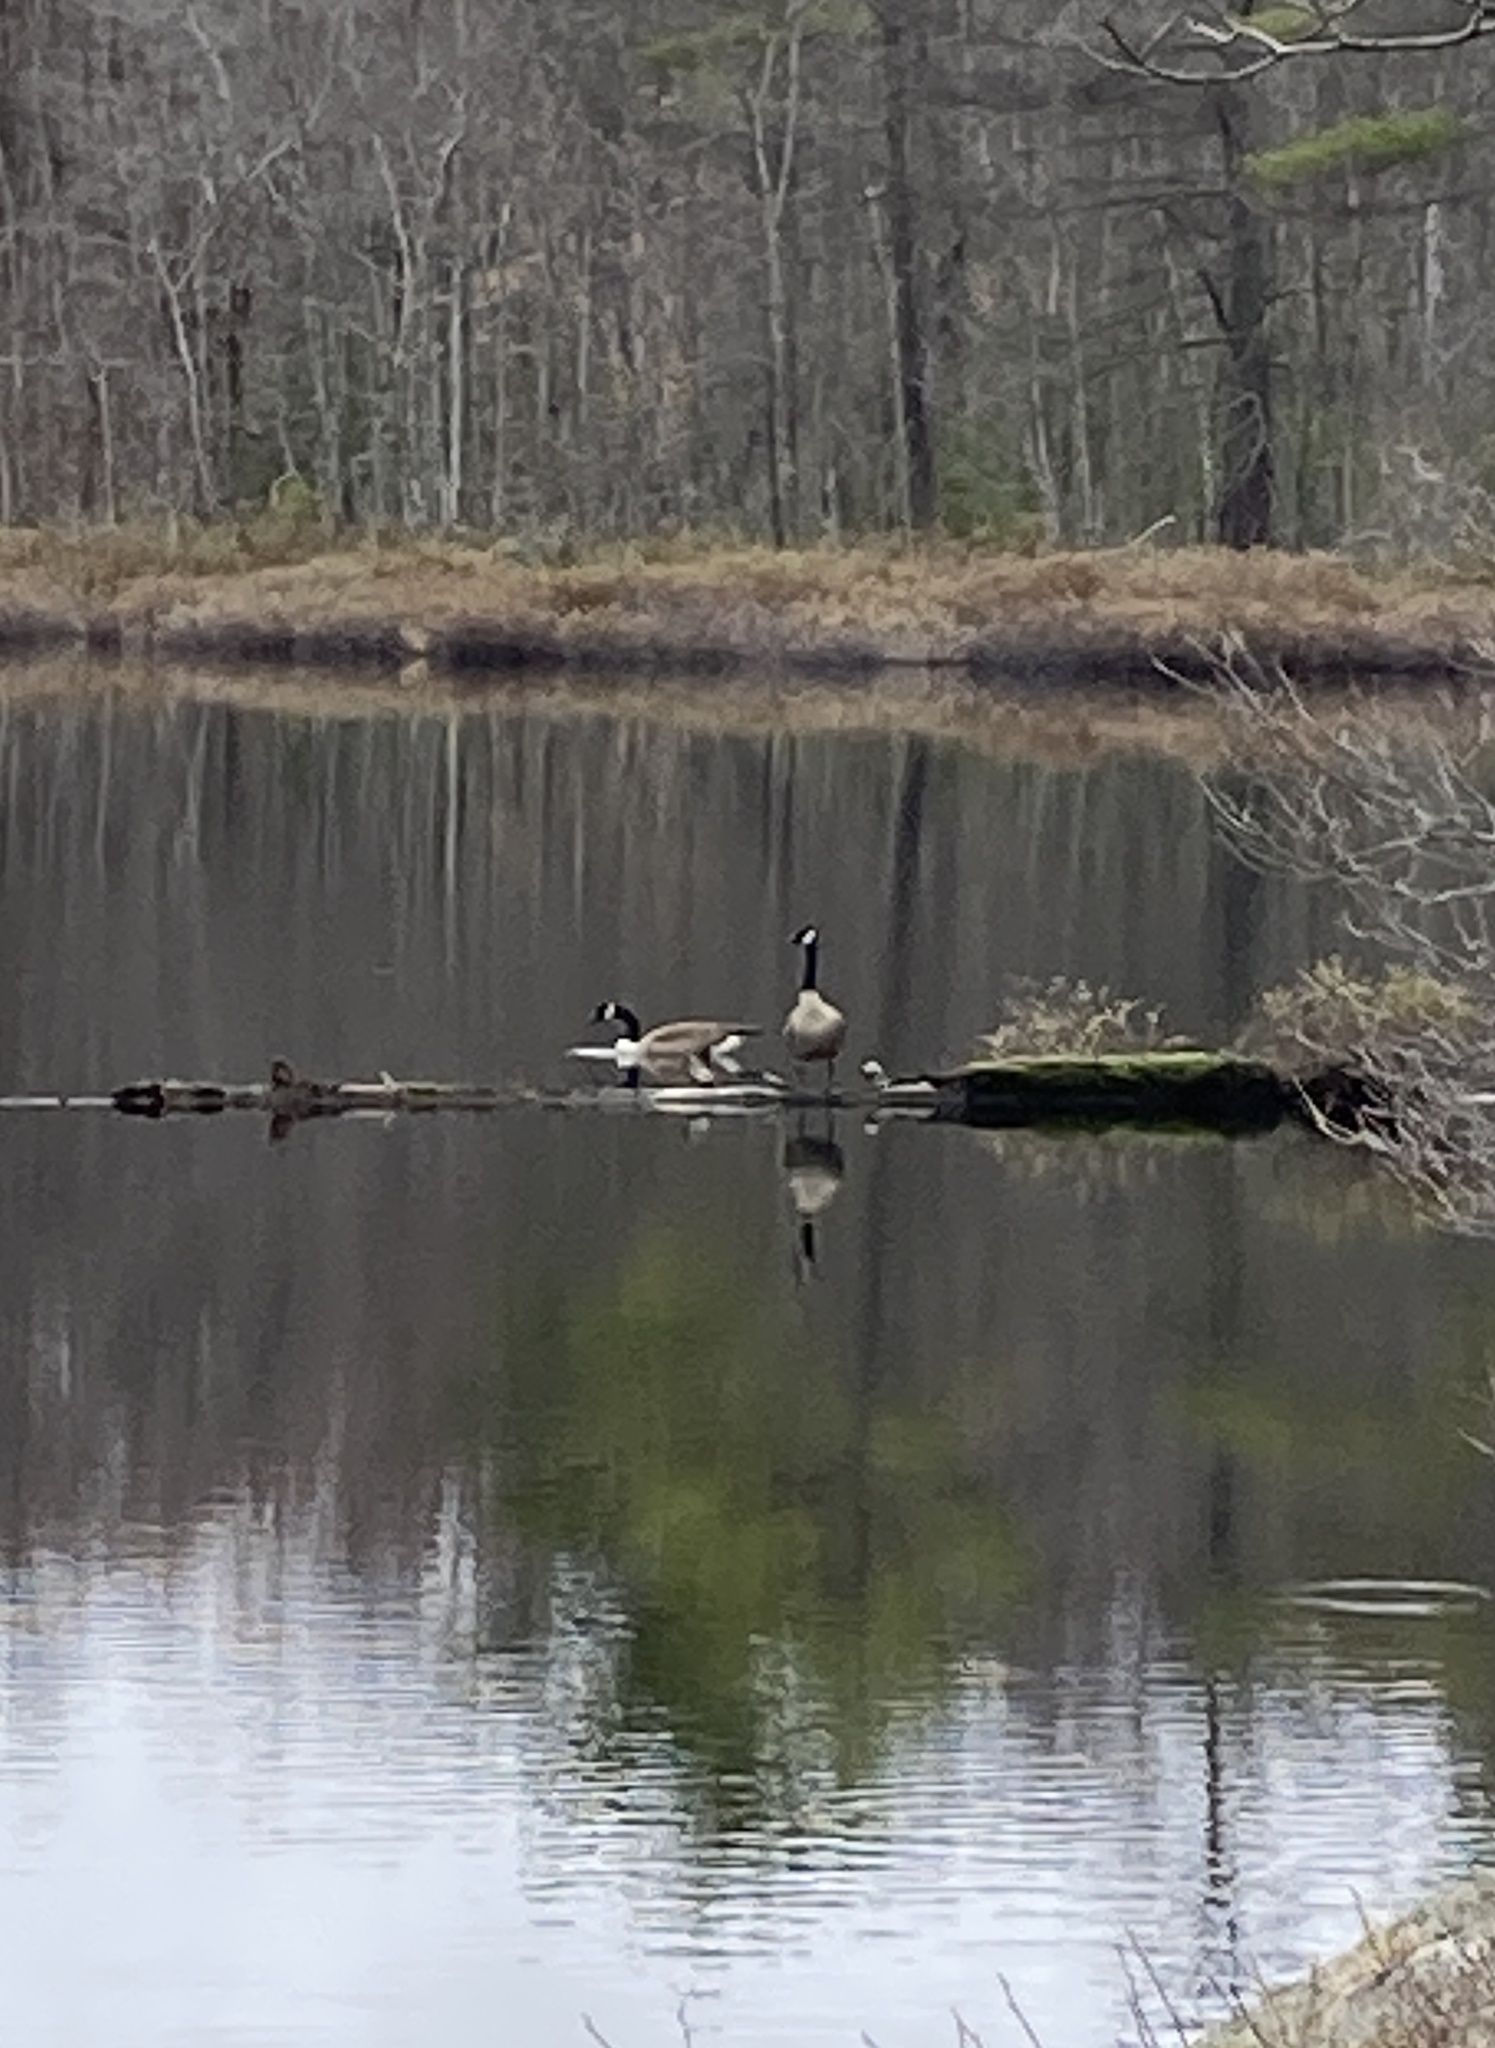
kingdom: Animalia
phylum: Chordata
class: Aves
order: Anseriformes
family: Anatidae
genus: Branta
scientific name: Branta canadensis
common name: Canada goose
